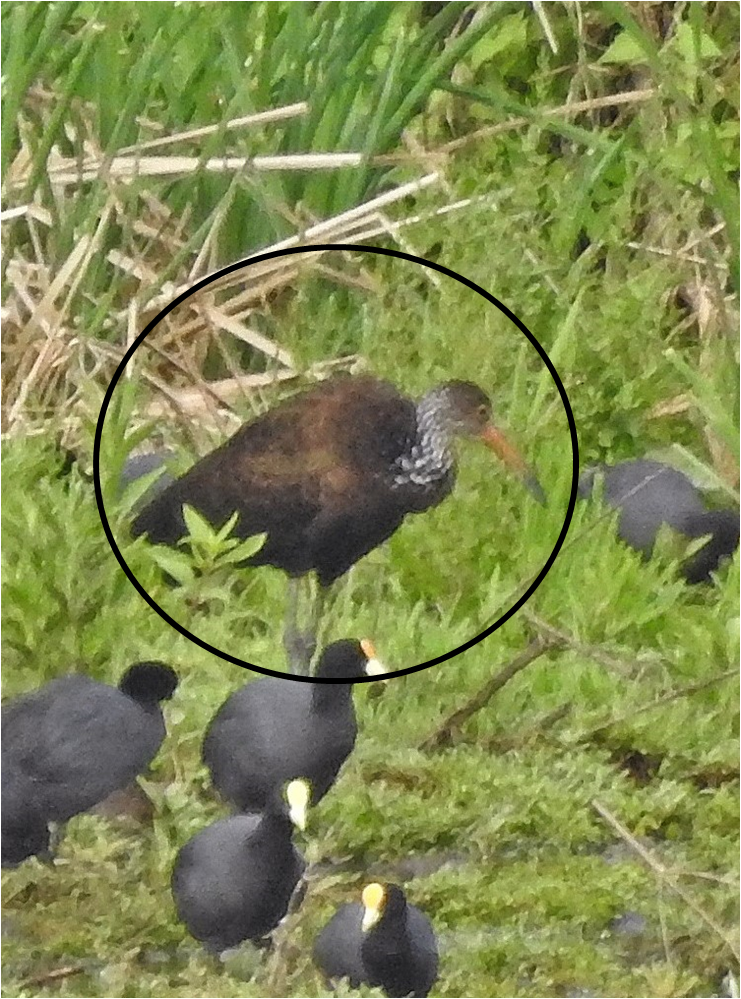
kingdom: Animalia
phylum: Chordata
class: Aves
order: Gruiformes
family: Aramidae
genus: Aramus
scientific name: Aramus guarauna
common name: Limpkin
